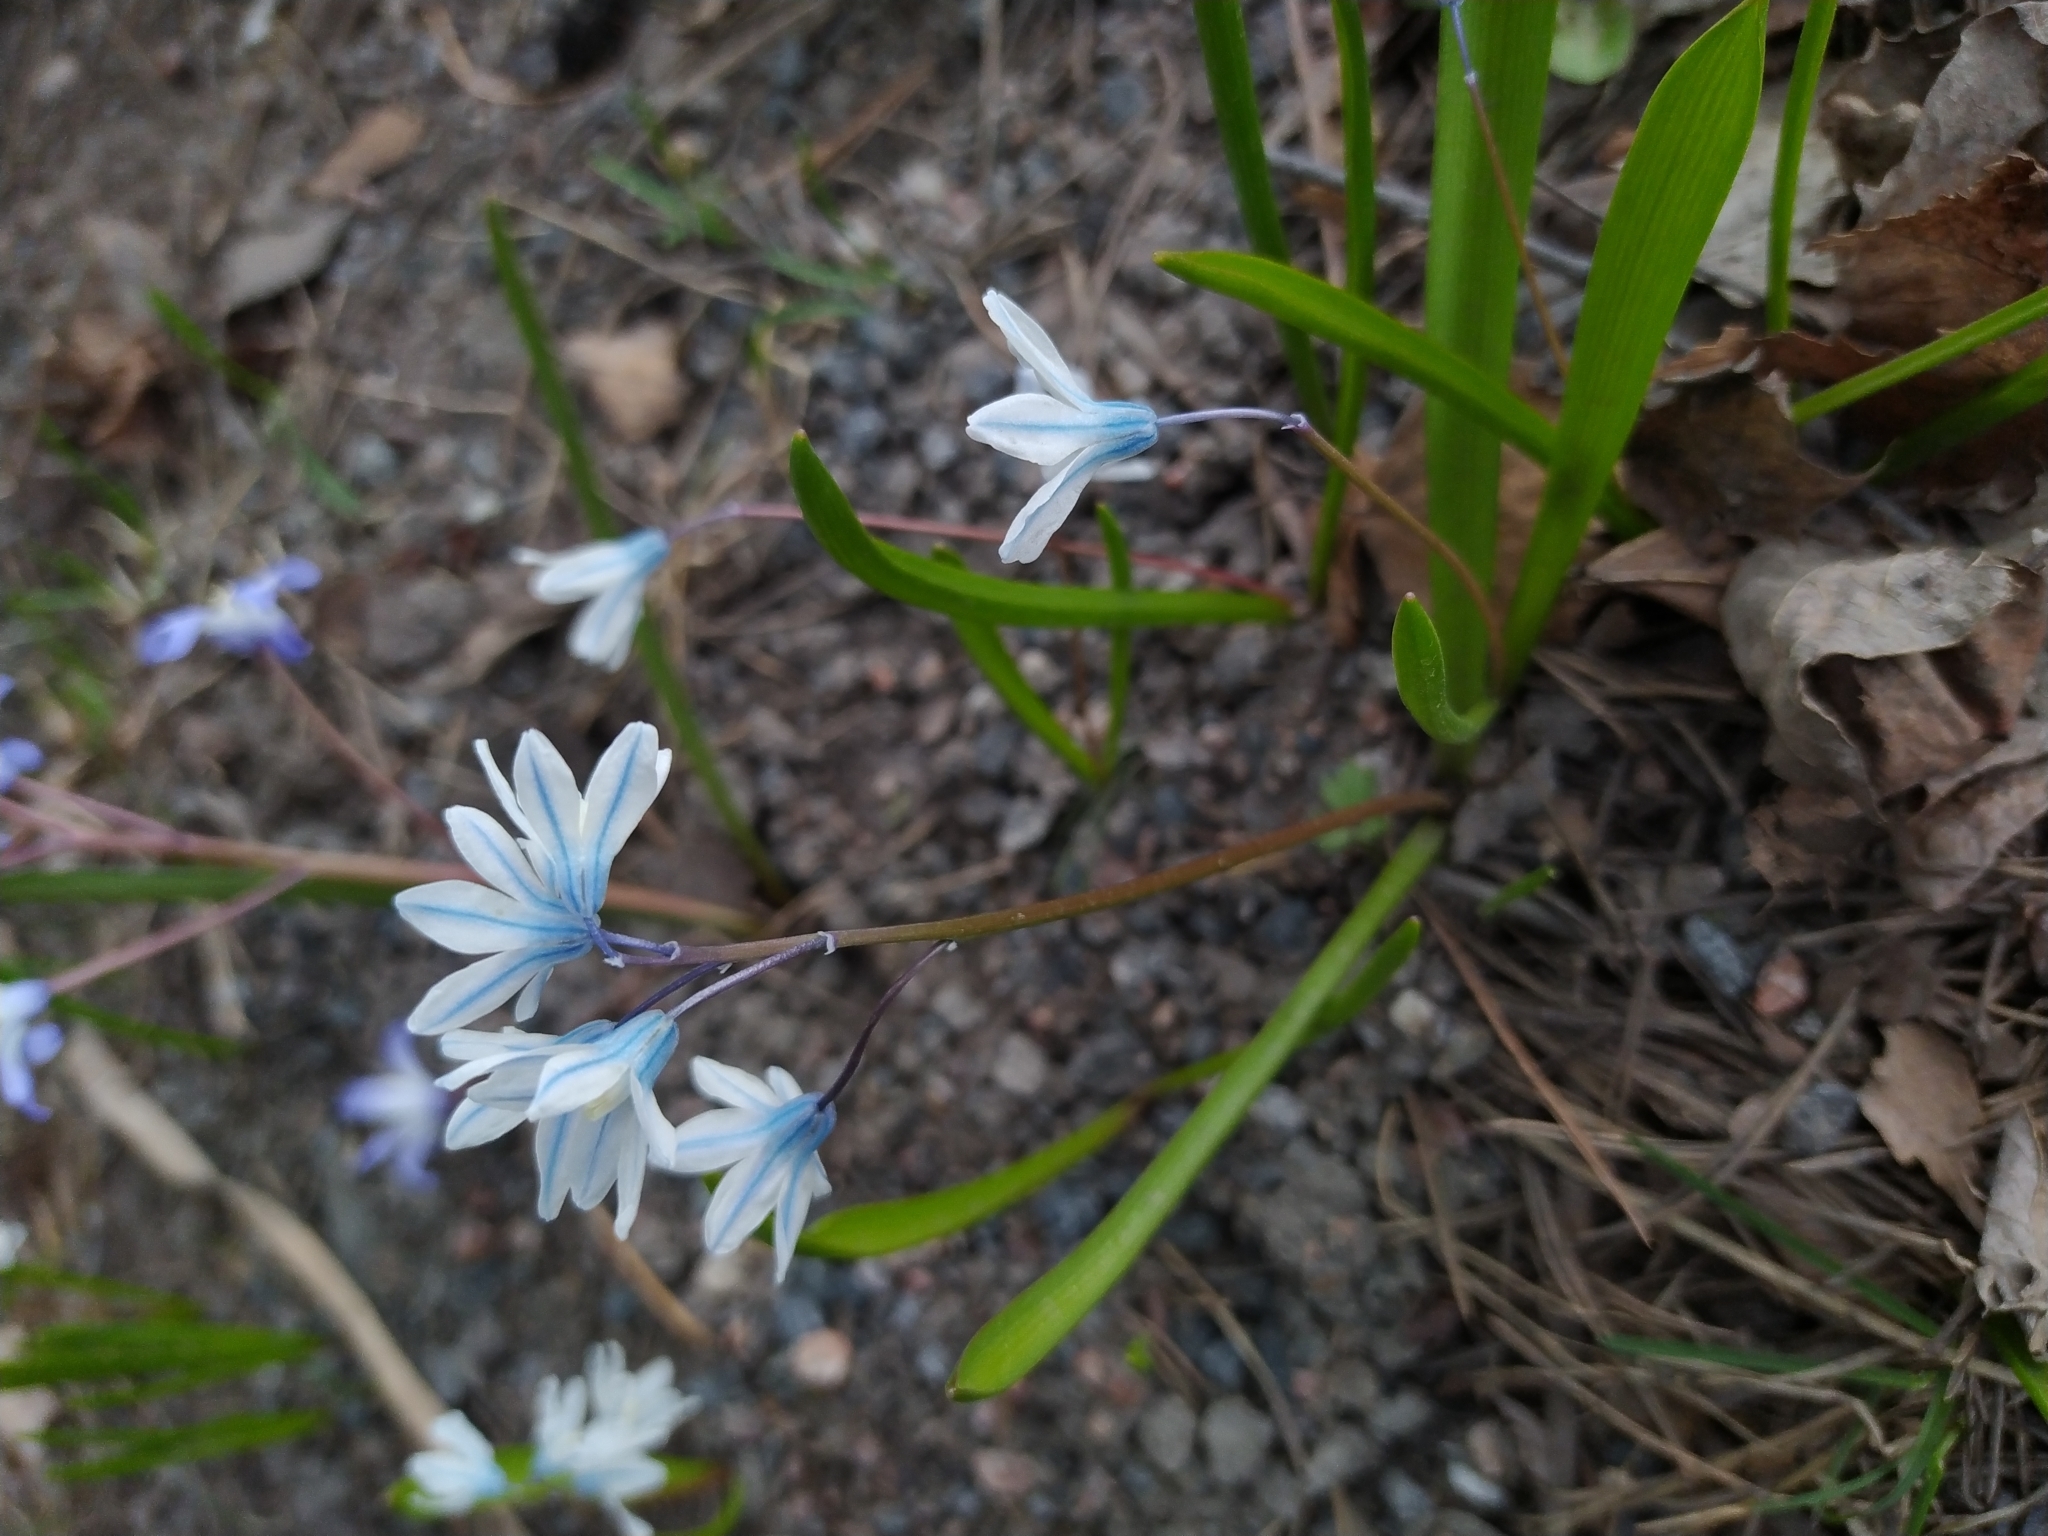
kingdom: Plantae
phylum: Tracheophyta
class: Liliopsida
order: Asparagales
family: Asparagaceae
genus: Puschkinia
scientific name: Puschkinia scilloides
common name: Striped squill
